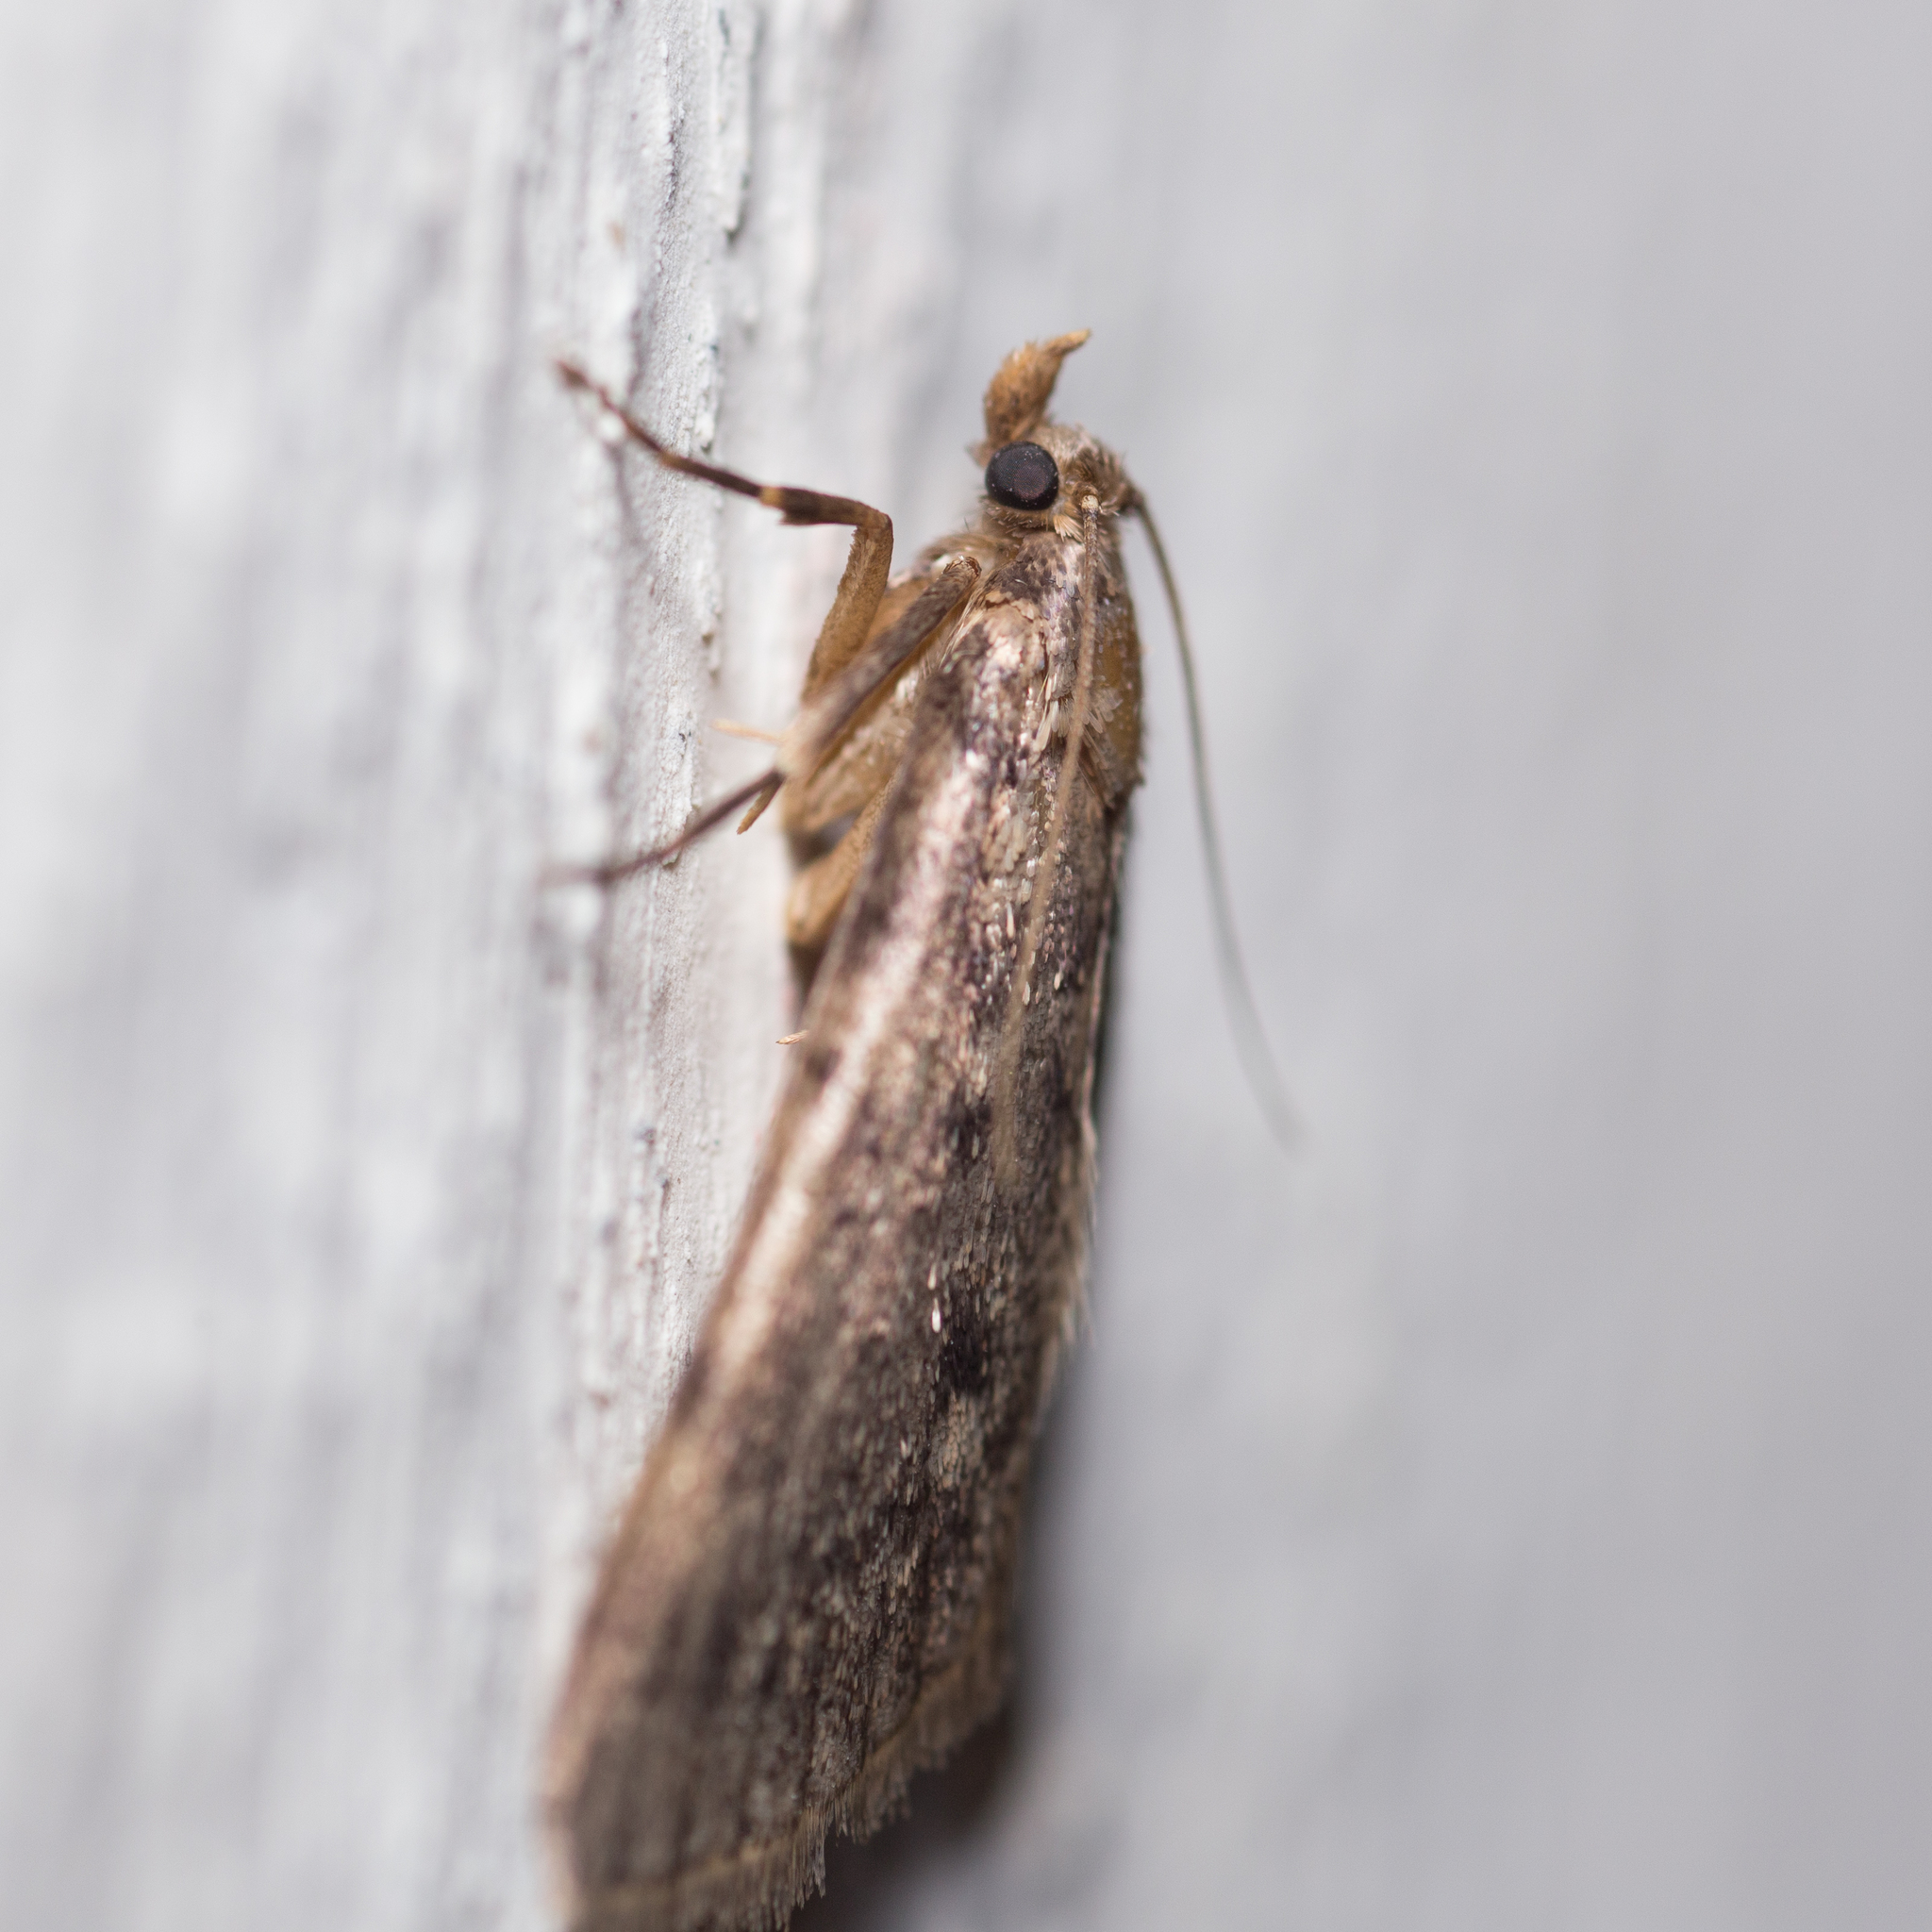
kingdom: Animalia
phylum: Arthropoda
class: Insecta
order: Lepidoptera
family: Pyralidae
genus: Aglossa
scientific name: Aglossa pinguinalis
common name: Large tabby
